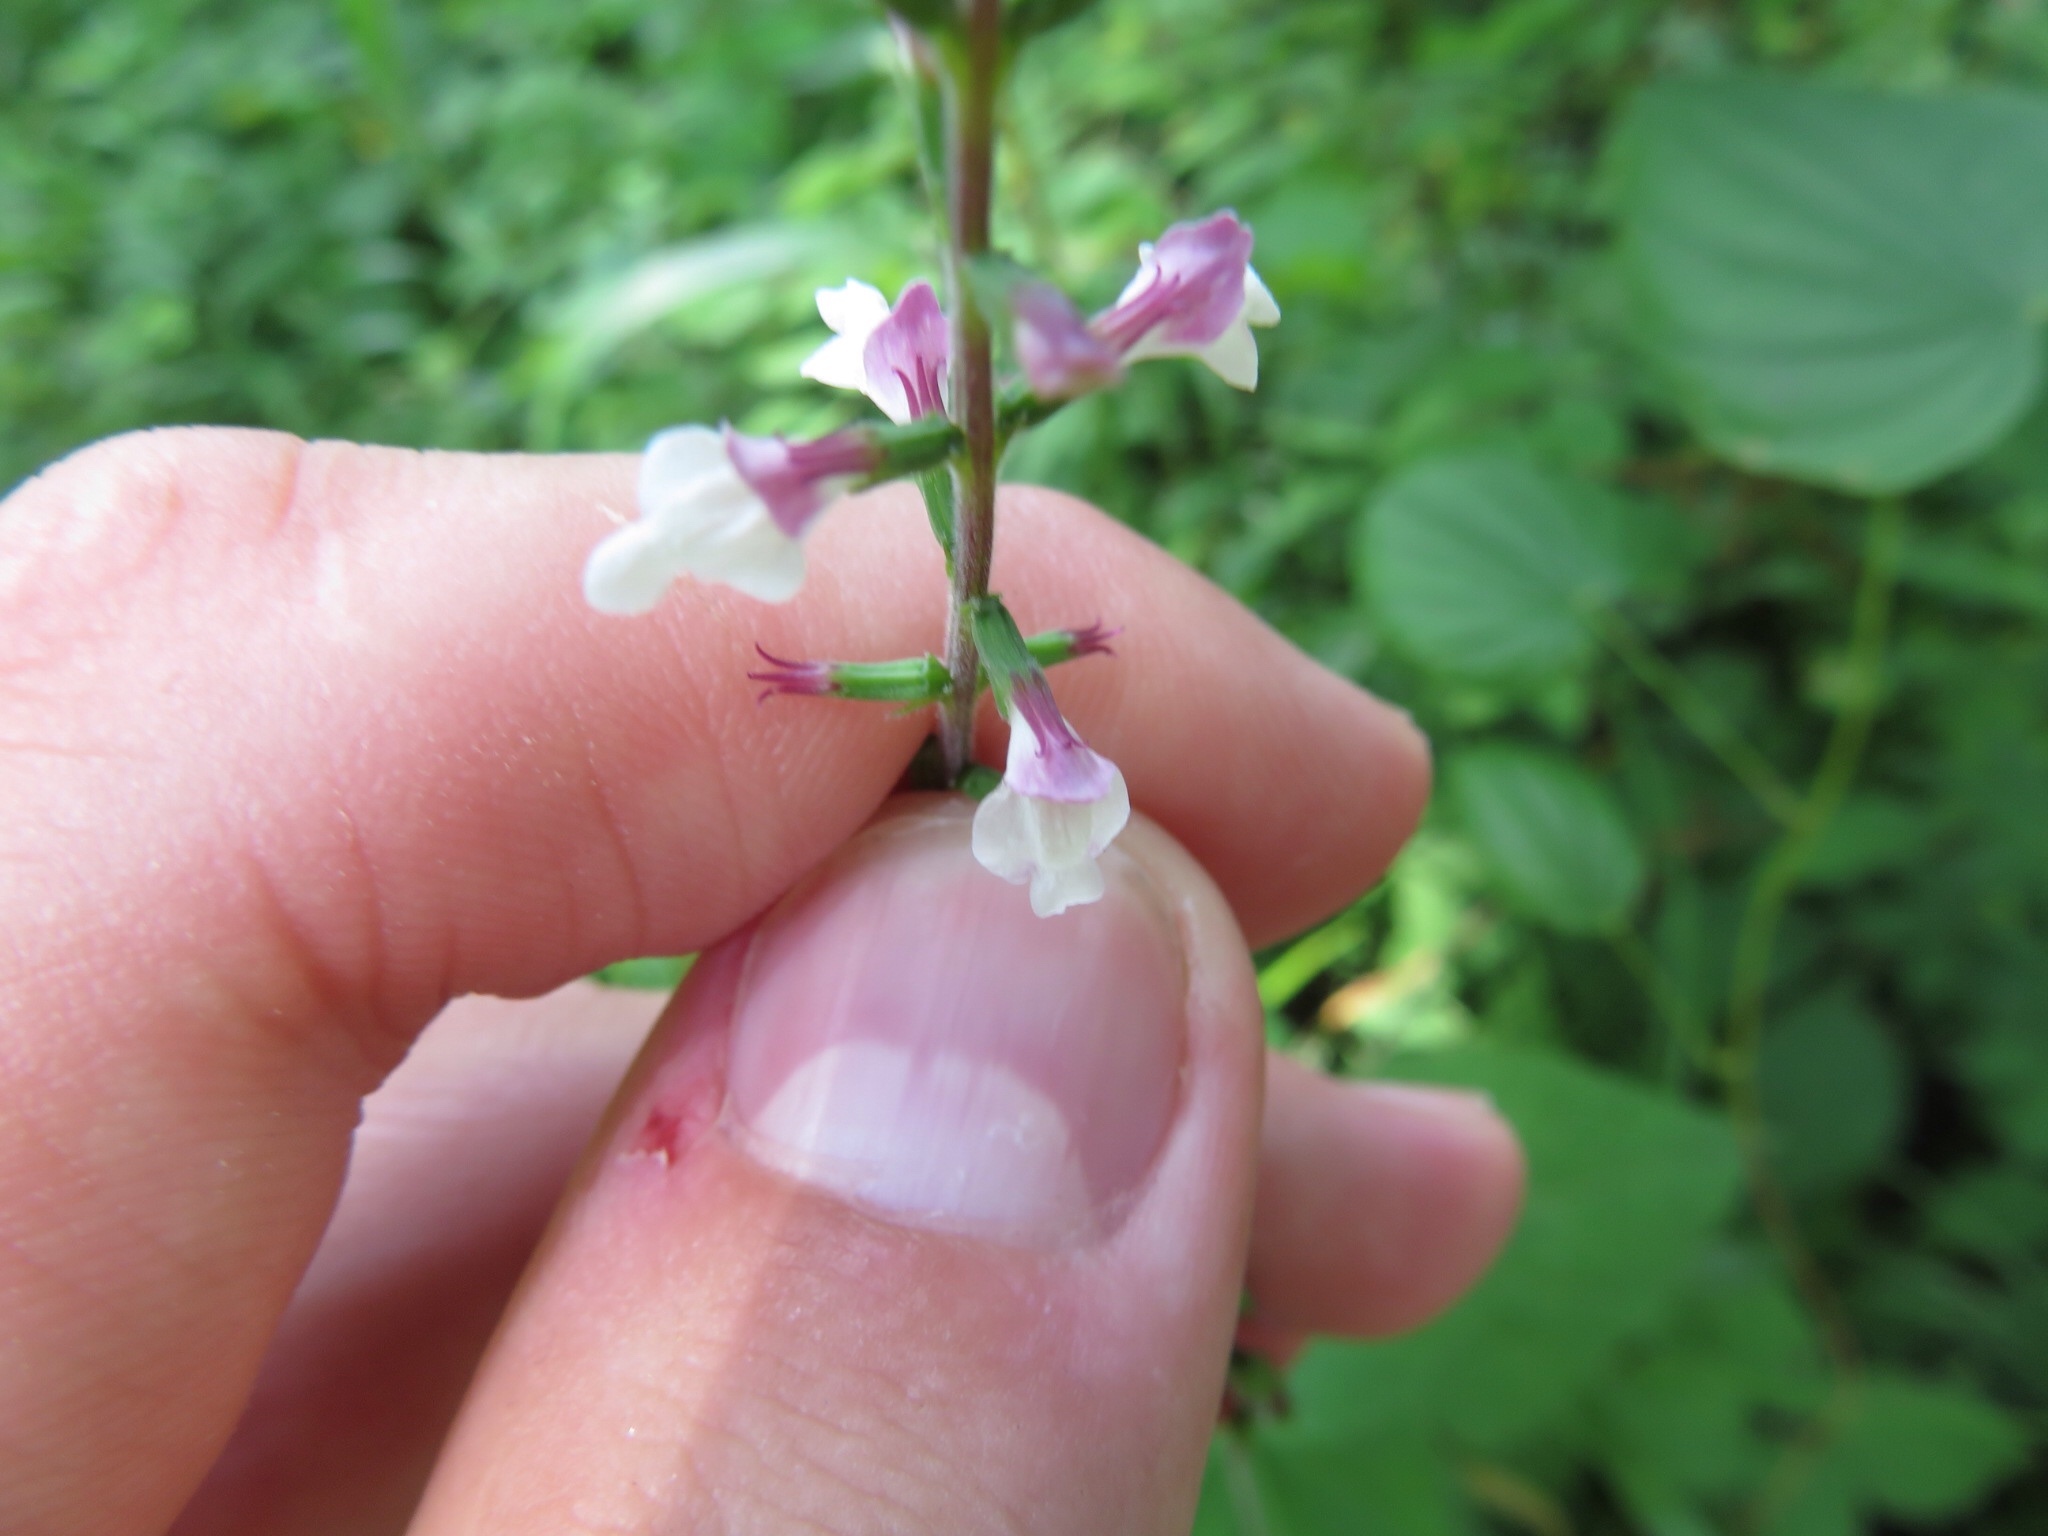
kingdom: Plantae
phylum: Tracheophyta
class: Magnoliopsida
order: Lamiales
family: Phrymaceae
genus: Phryma
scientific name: Phryma leptostachya
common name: American lopseed
